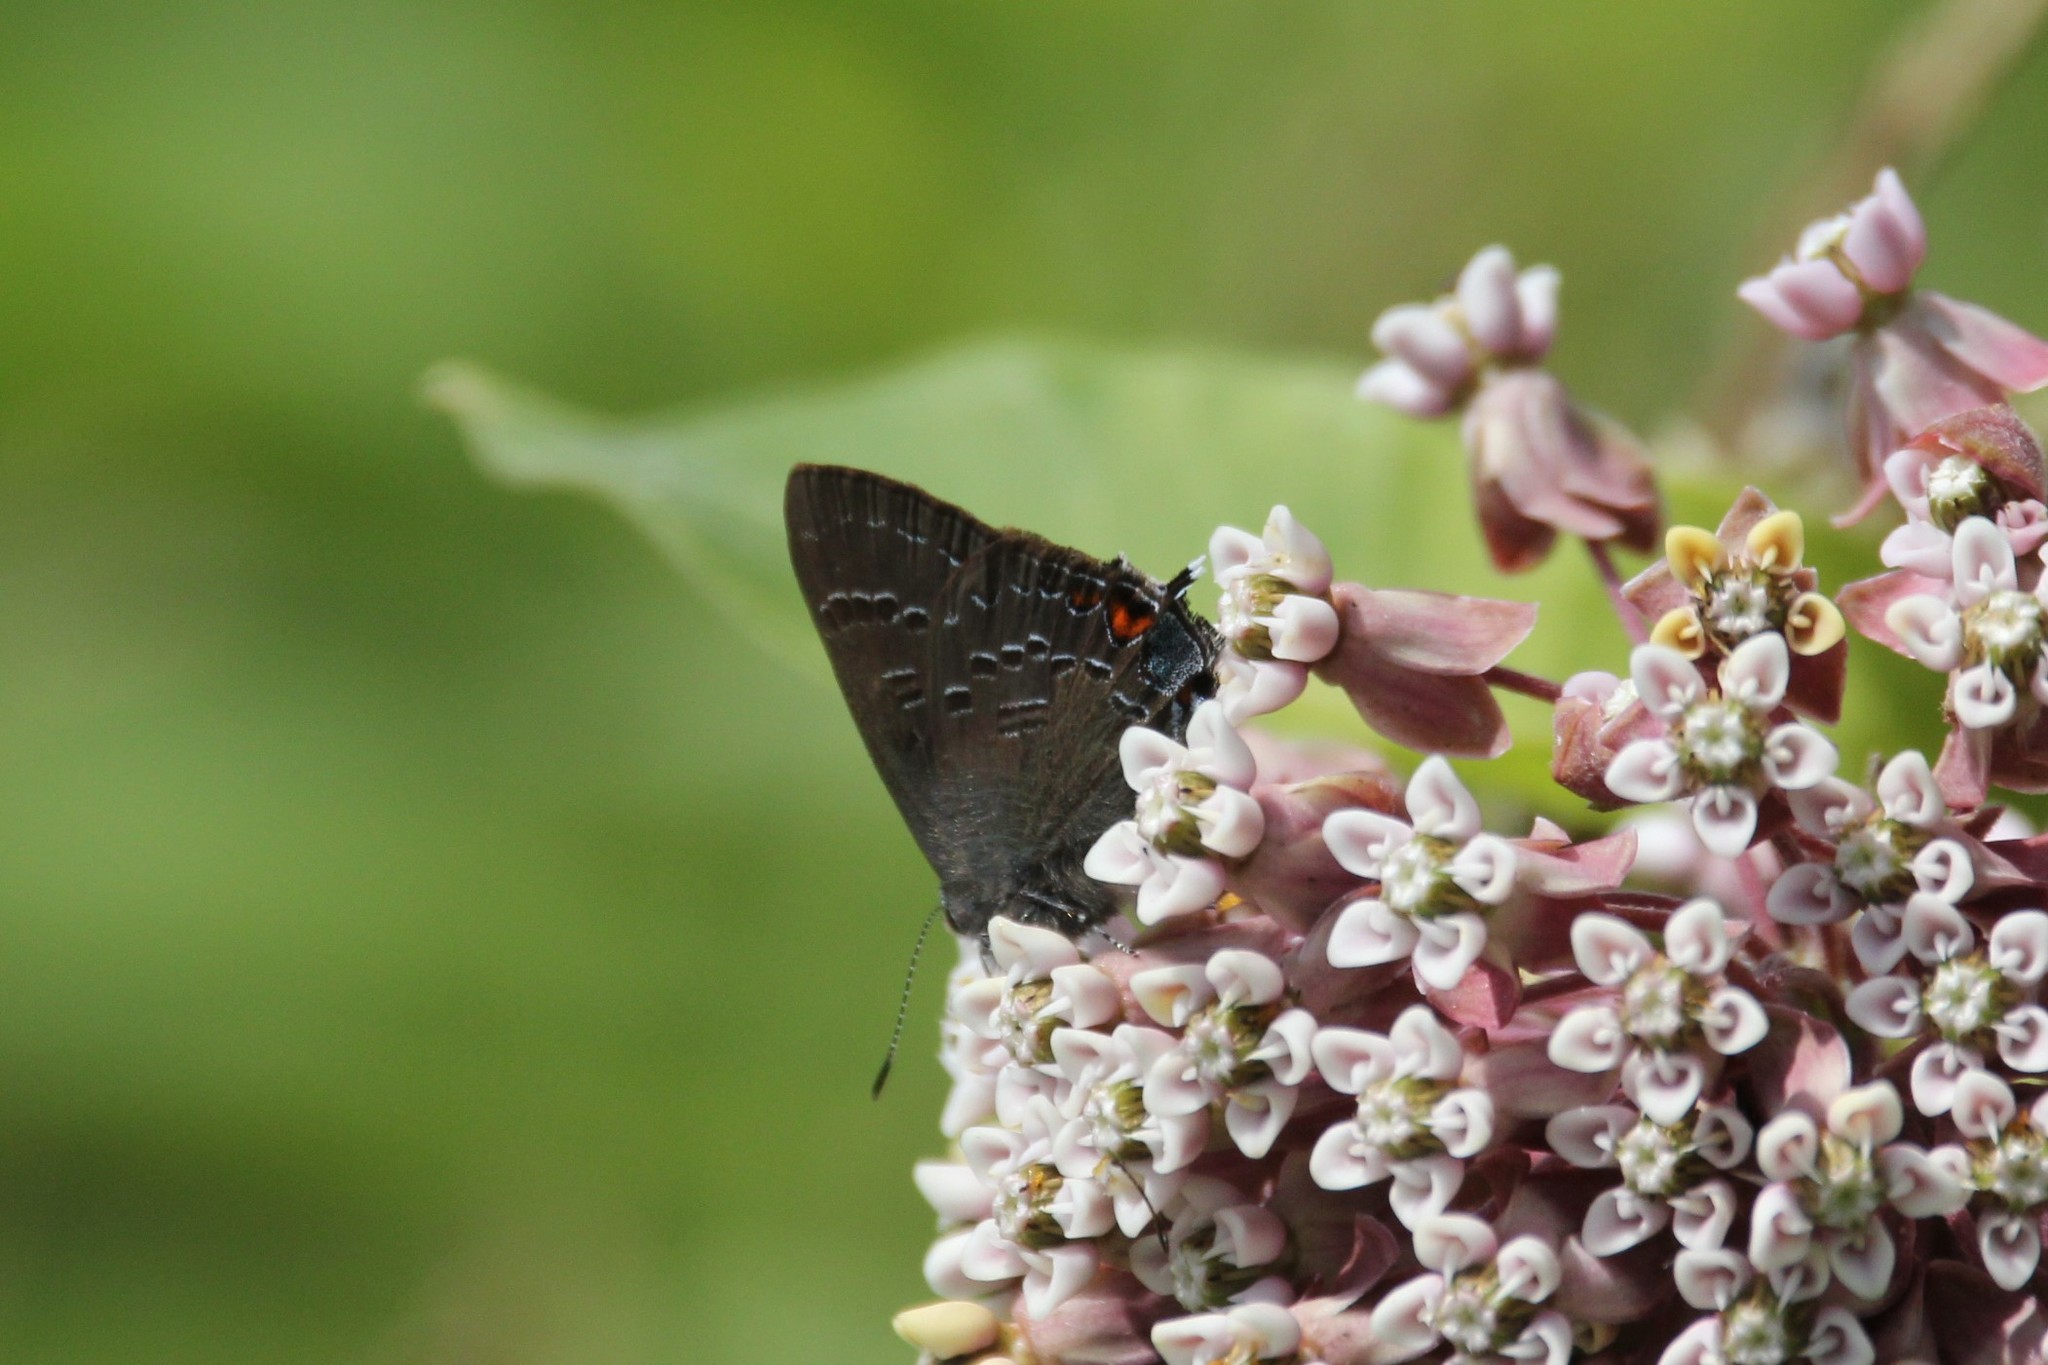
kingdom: Animalia
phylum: Arthropoda
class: Insecta
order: Lepidoptera
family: Lycaenidae
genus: Satyrium
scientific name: Satyrium calanus
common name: Banded hairstreak
